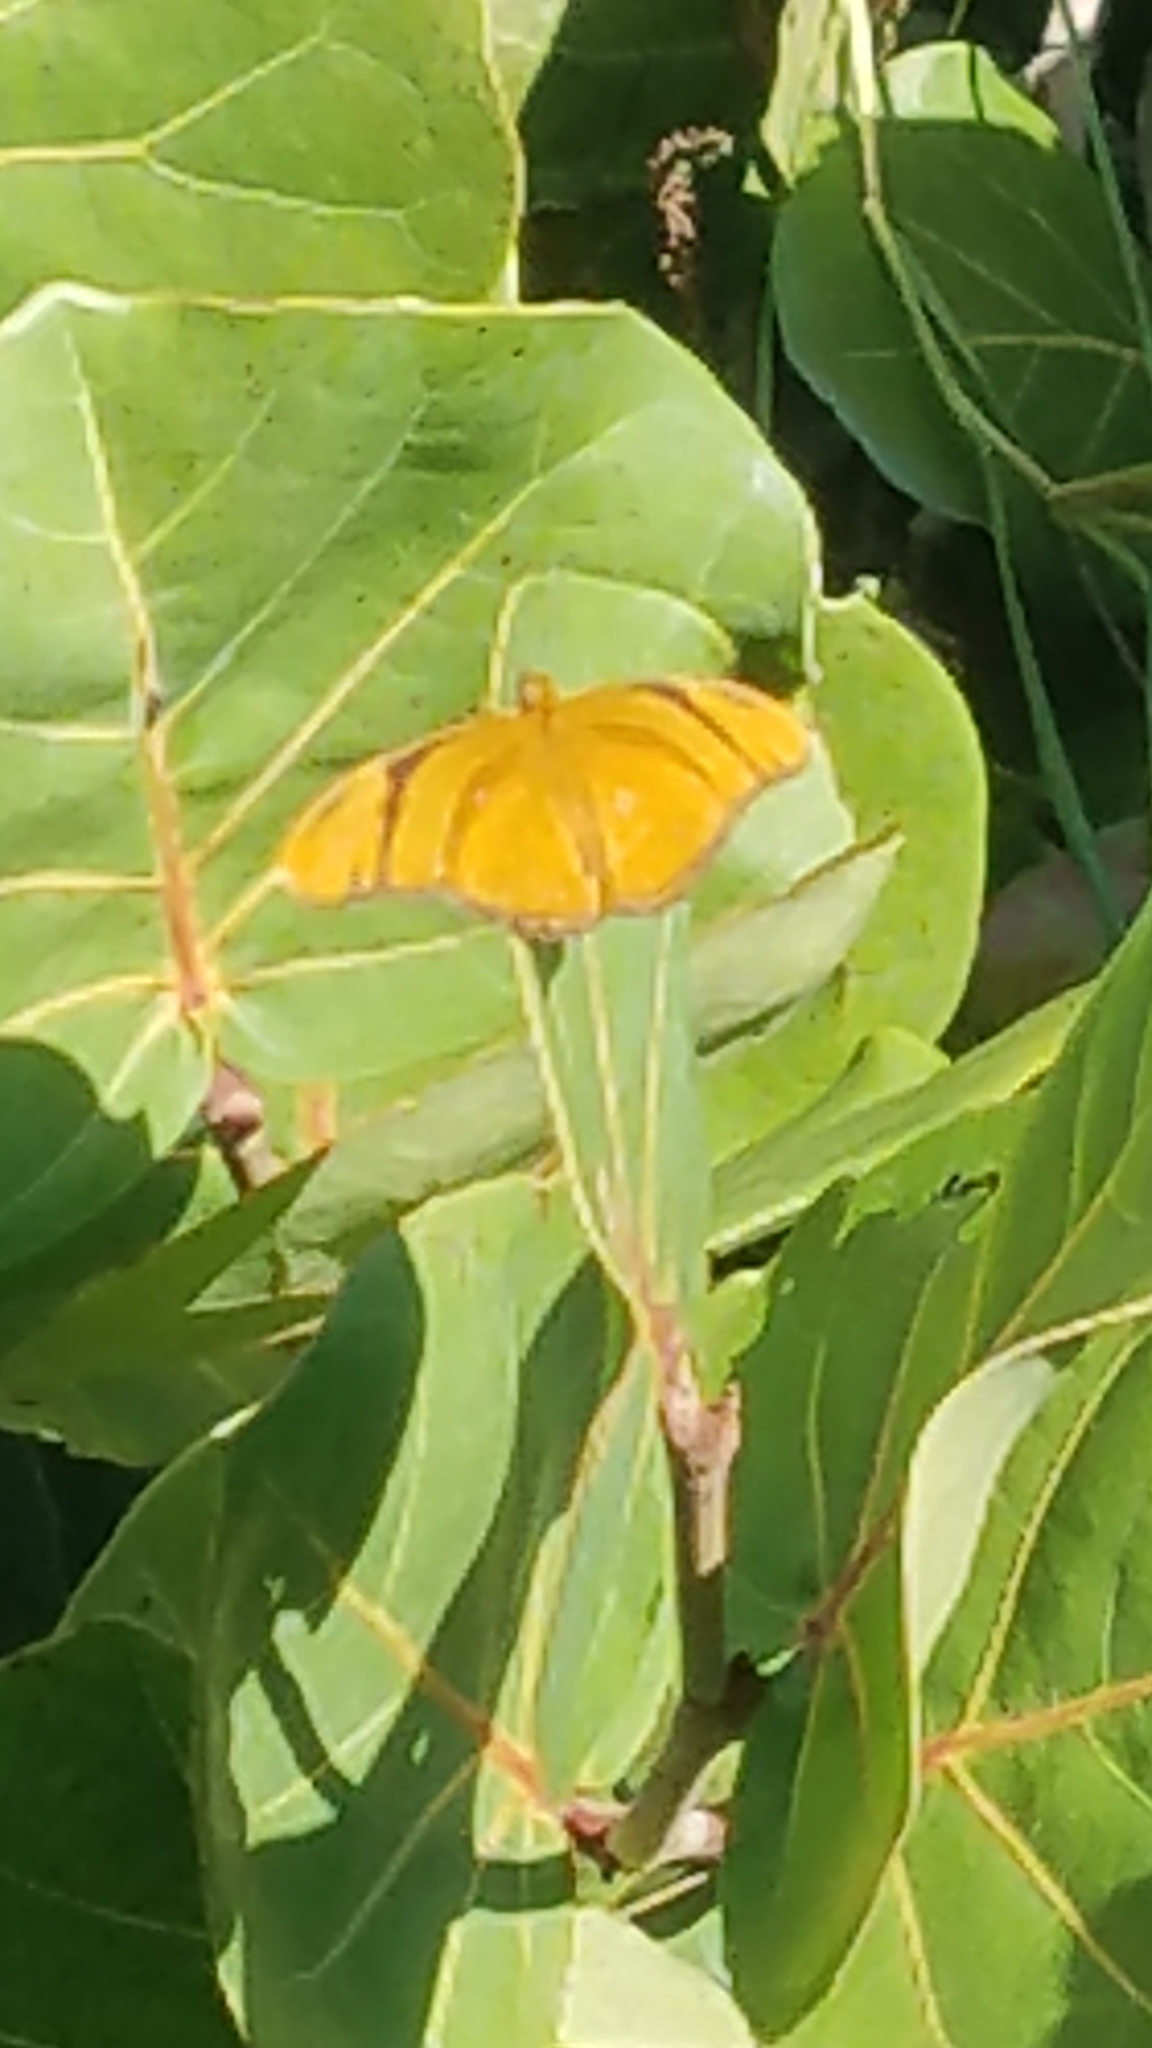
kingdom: Animalia
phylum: Arthropoda
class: Insecta
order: Lepidoptera
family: Nymphalidae
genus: Dryas
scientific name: Dryas iulia
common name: Flambeau
